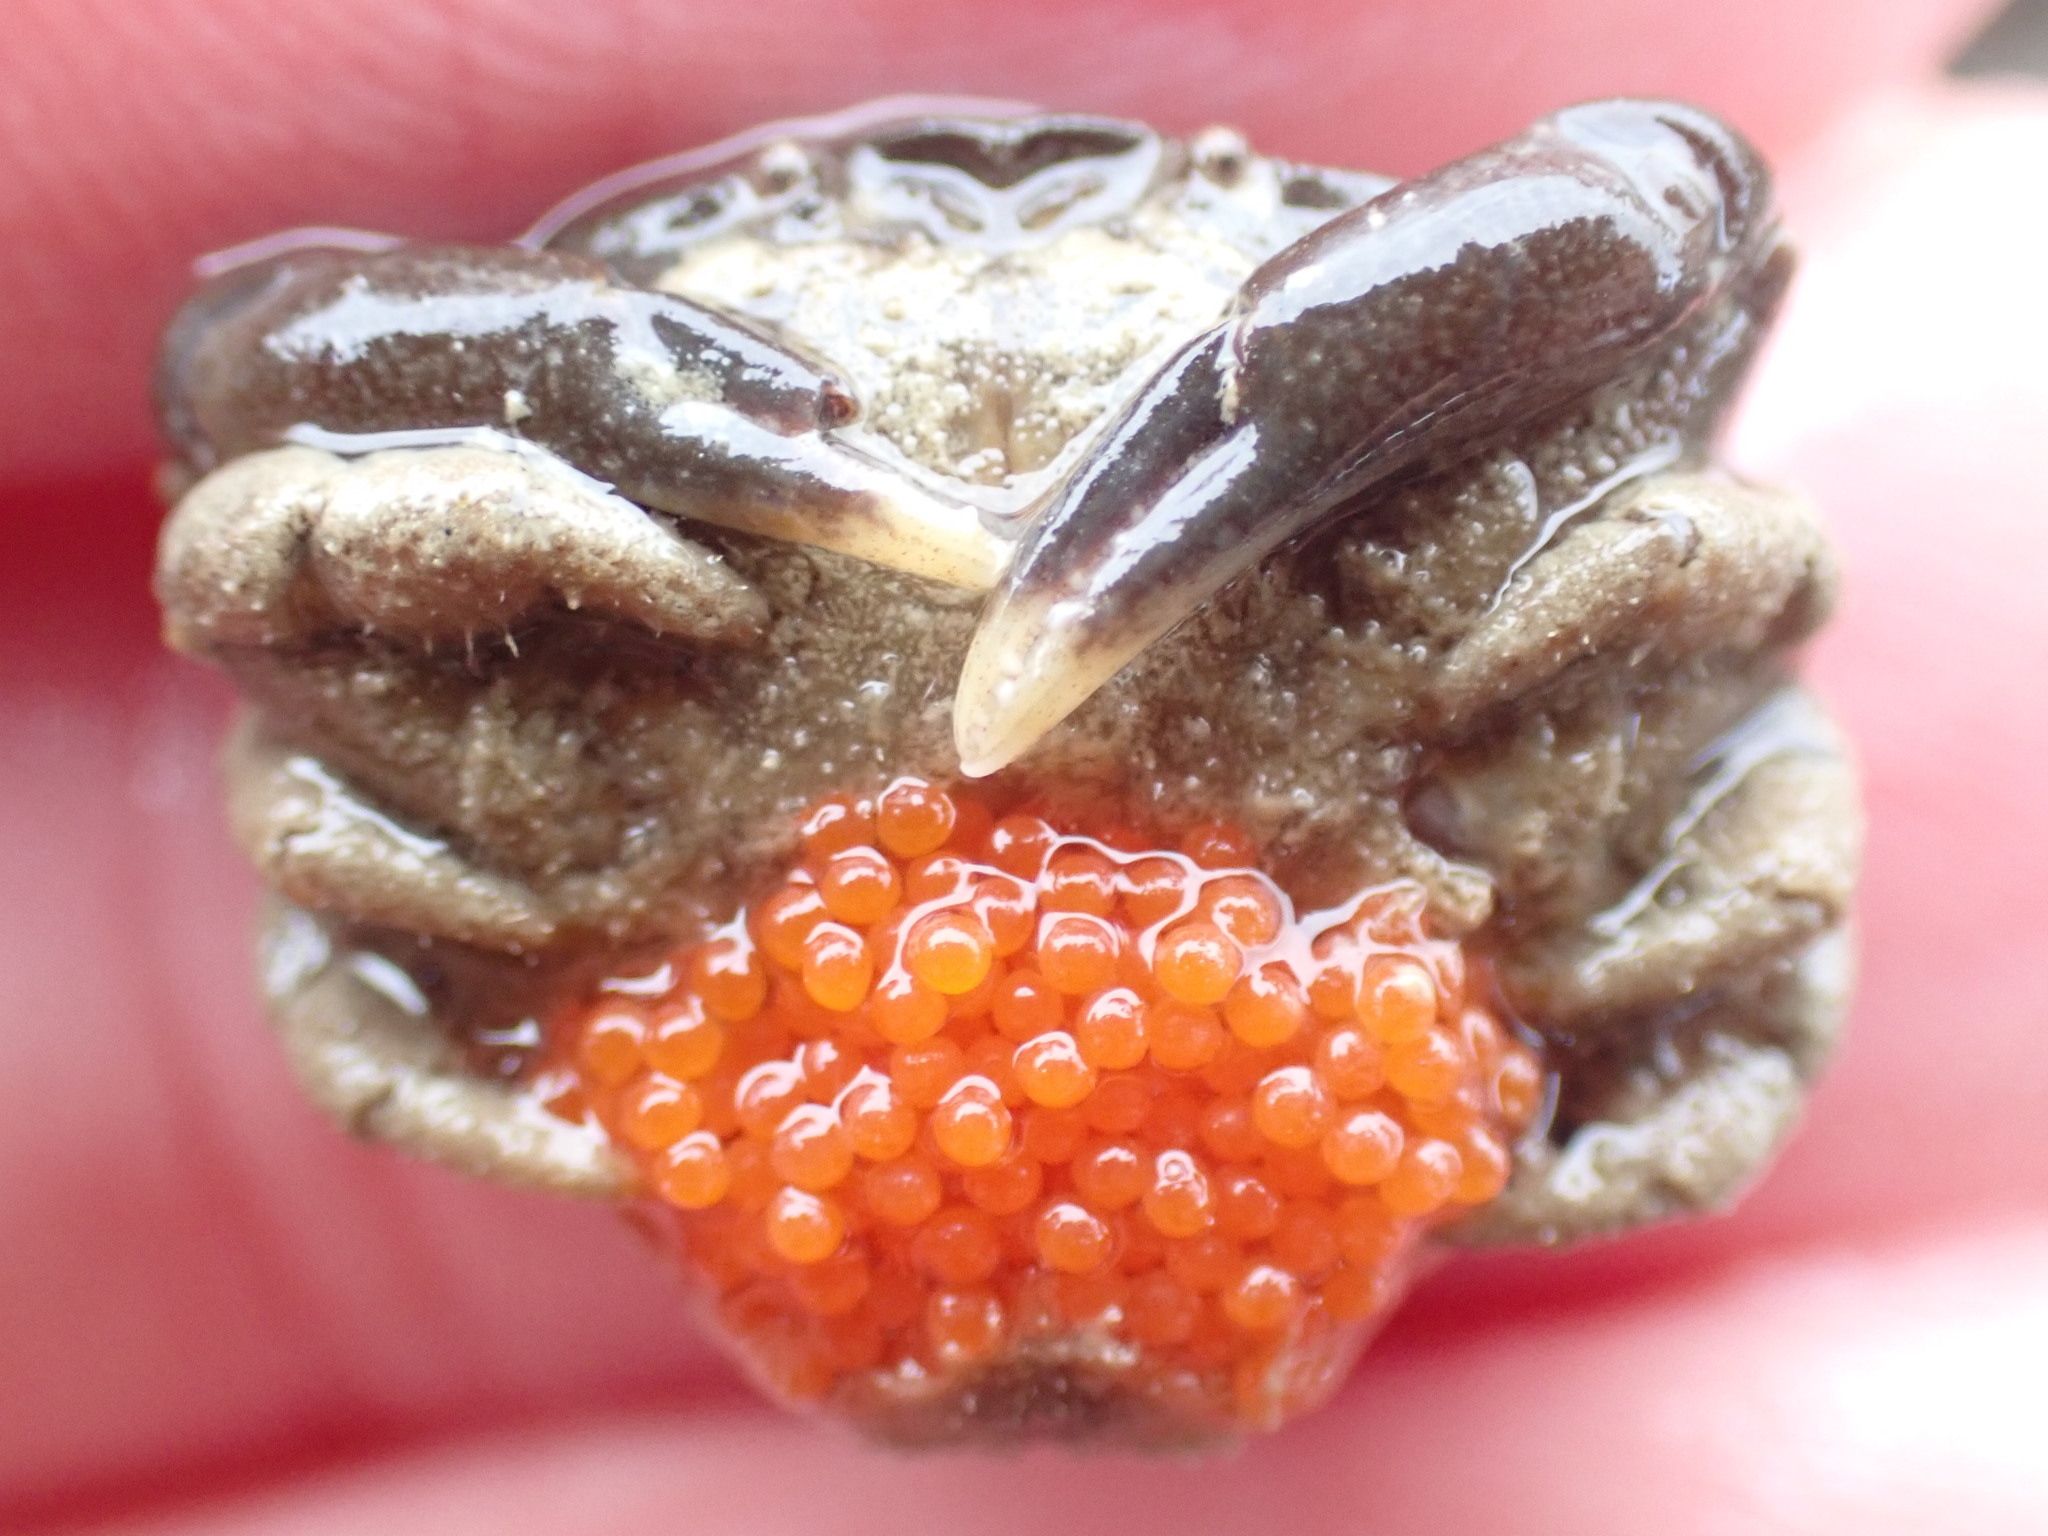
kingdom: Animalia
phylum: Arthropoda
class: Malacostraca
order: Decapoda
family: Heteroziidae
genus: Heterozius
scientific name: Heterozius rotundifrons
